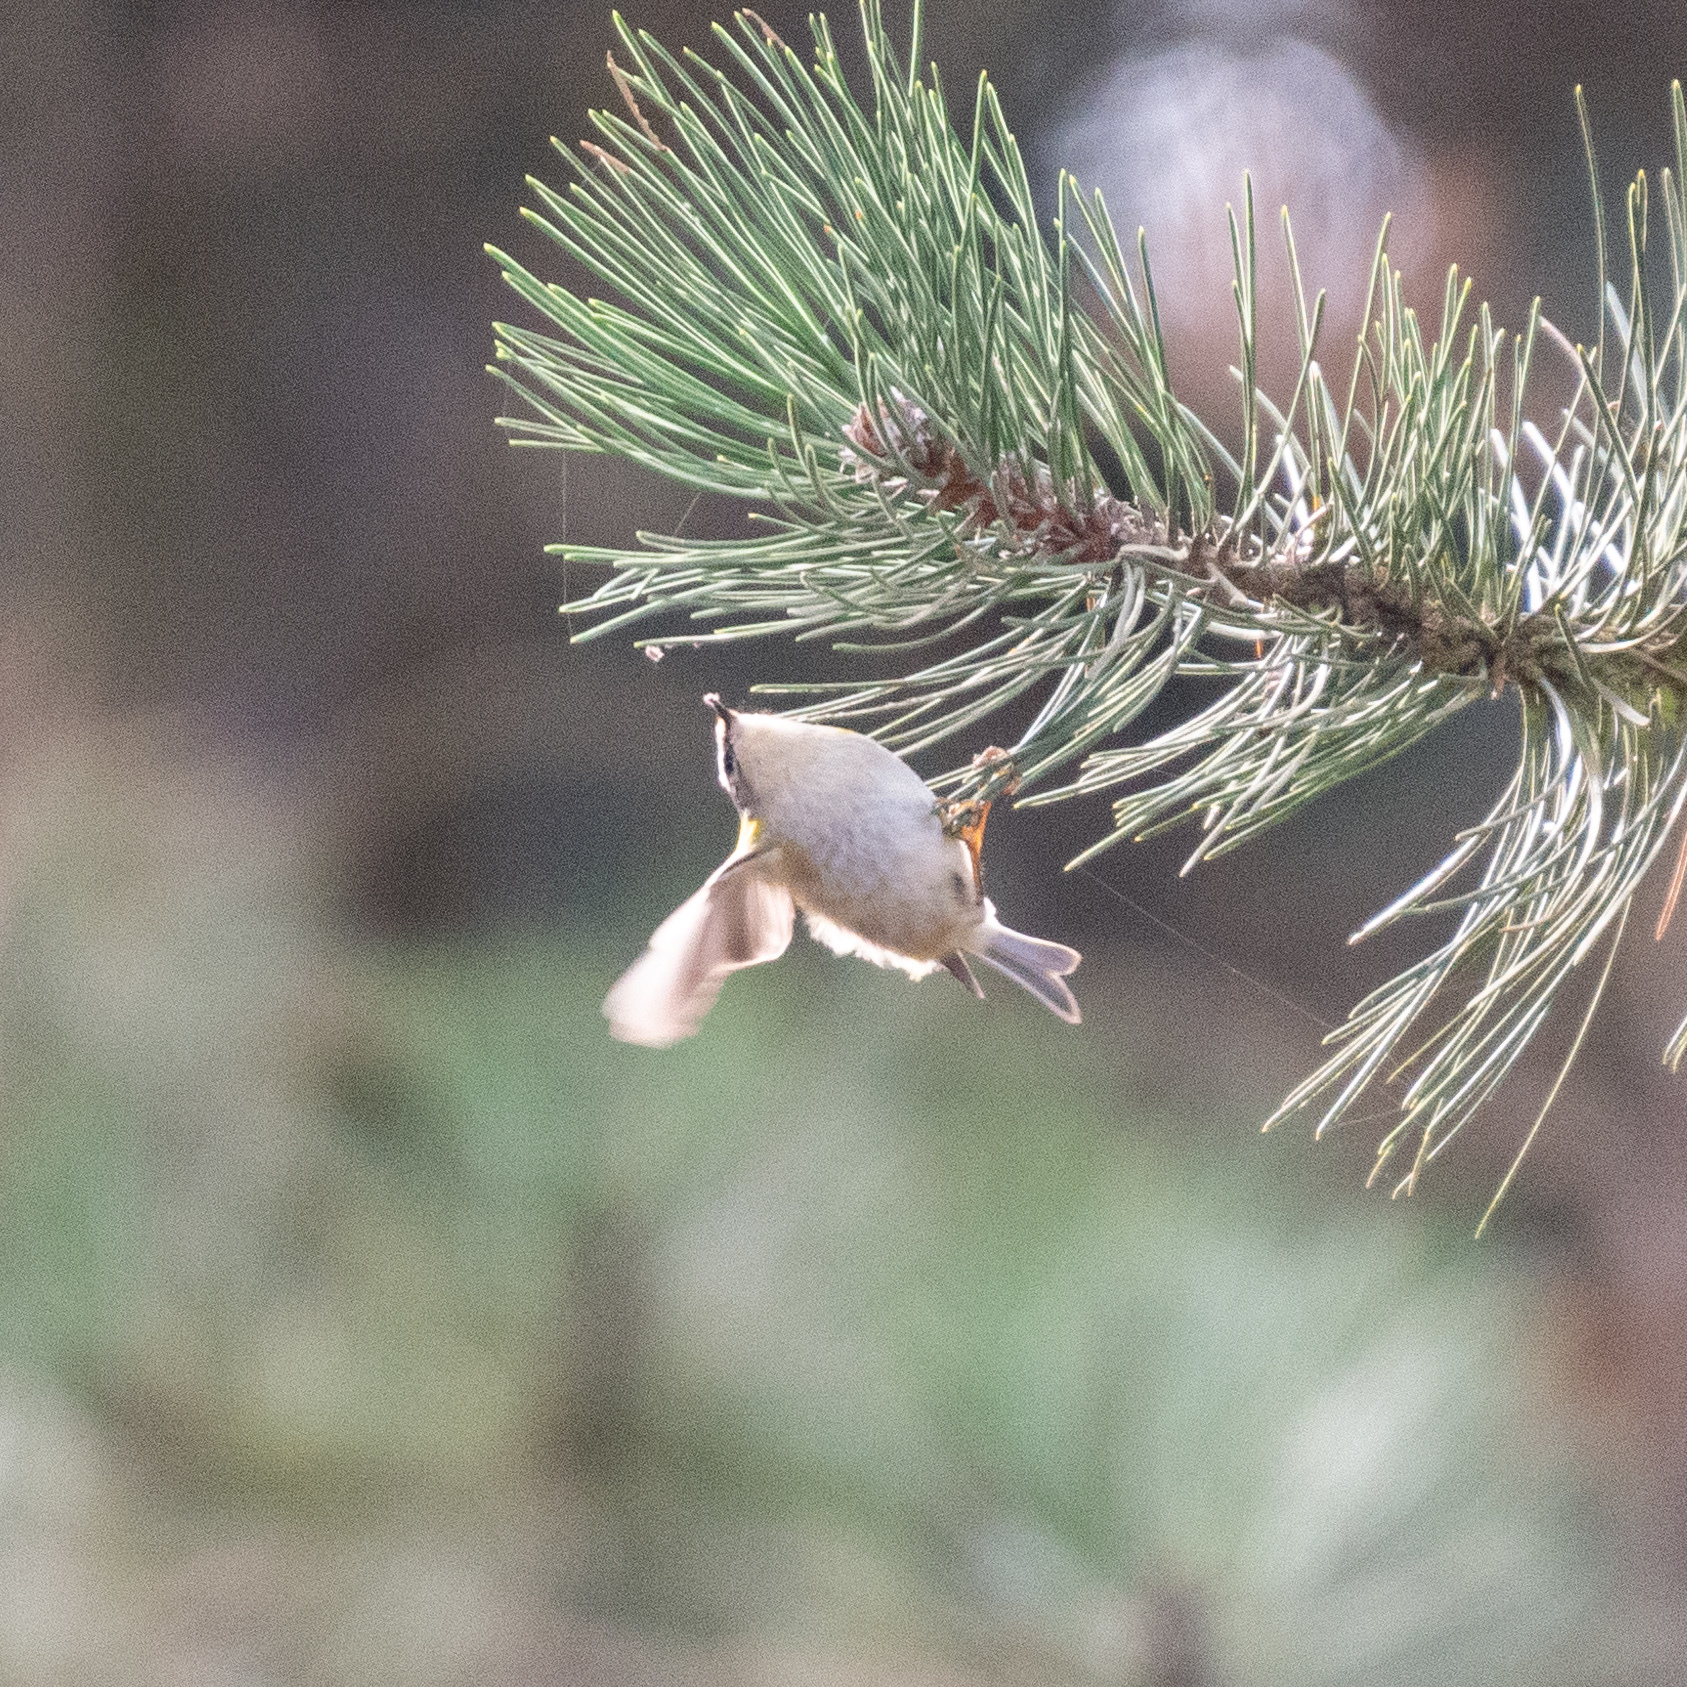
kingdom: Animalia
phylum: Chordata
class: Aves
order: Passeriformes
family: Regulidae
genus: Regulus
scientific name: Regulus ignicapilla
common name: Firecrest
